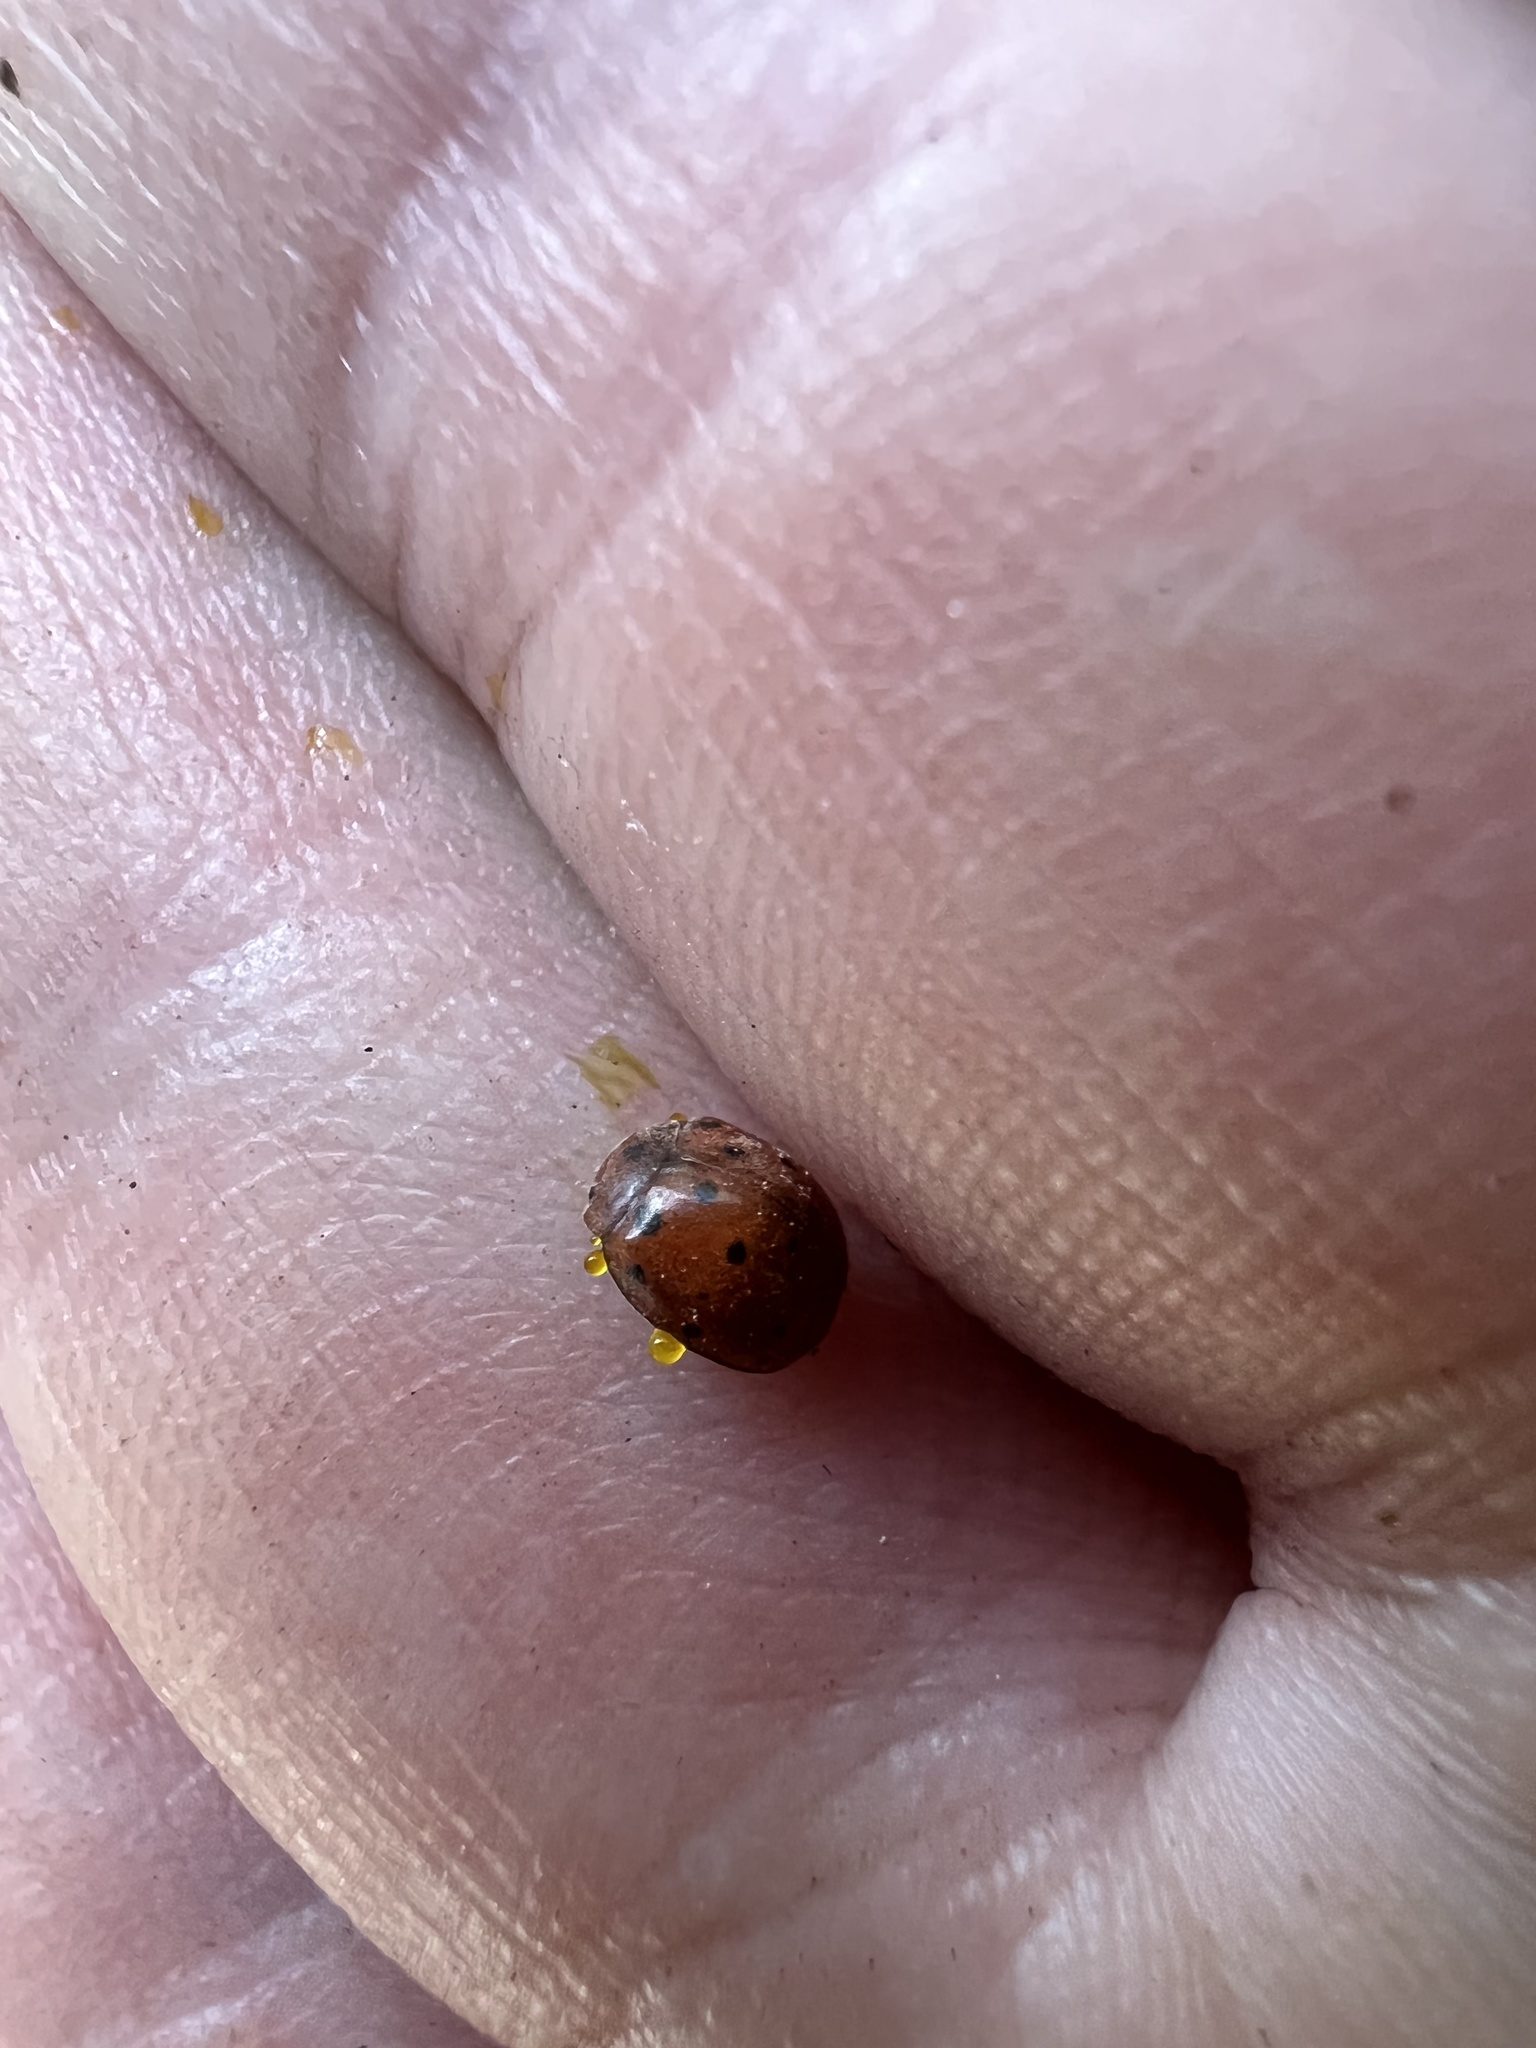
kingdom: Animalia
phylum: Arthropoda
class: Insecta
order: Coleoptera
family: Coccinellidae
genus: Subcoccinella
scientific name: Subcoccinella vigintiquatuorpunctata
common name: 24-spot ladybird
